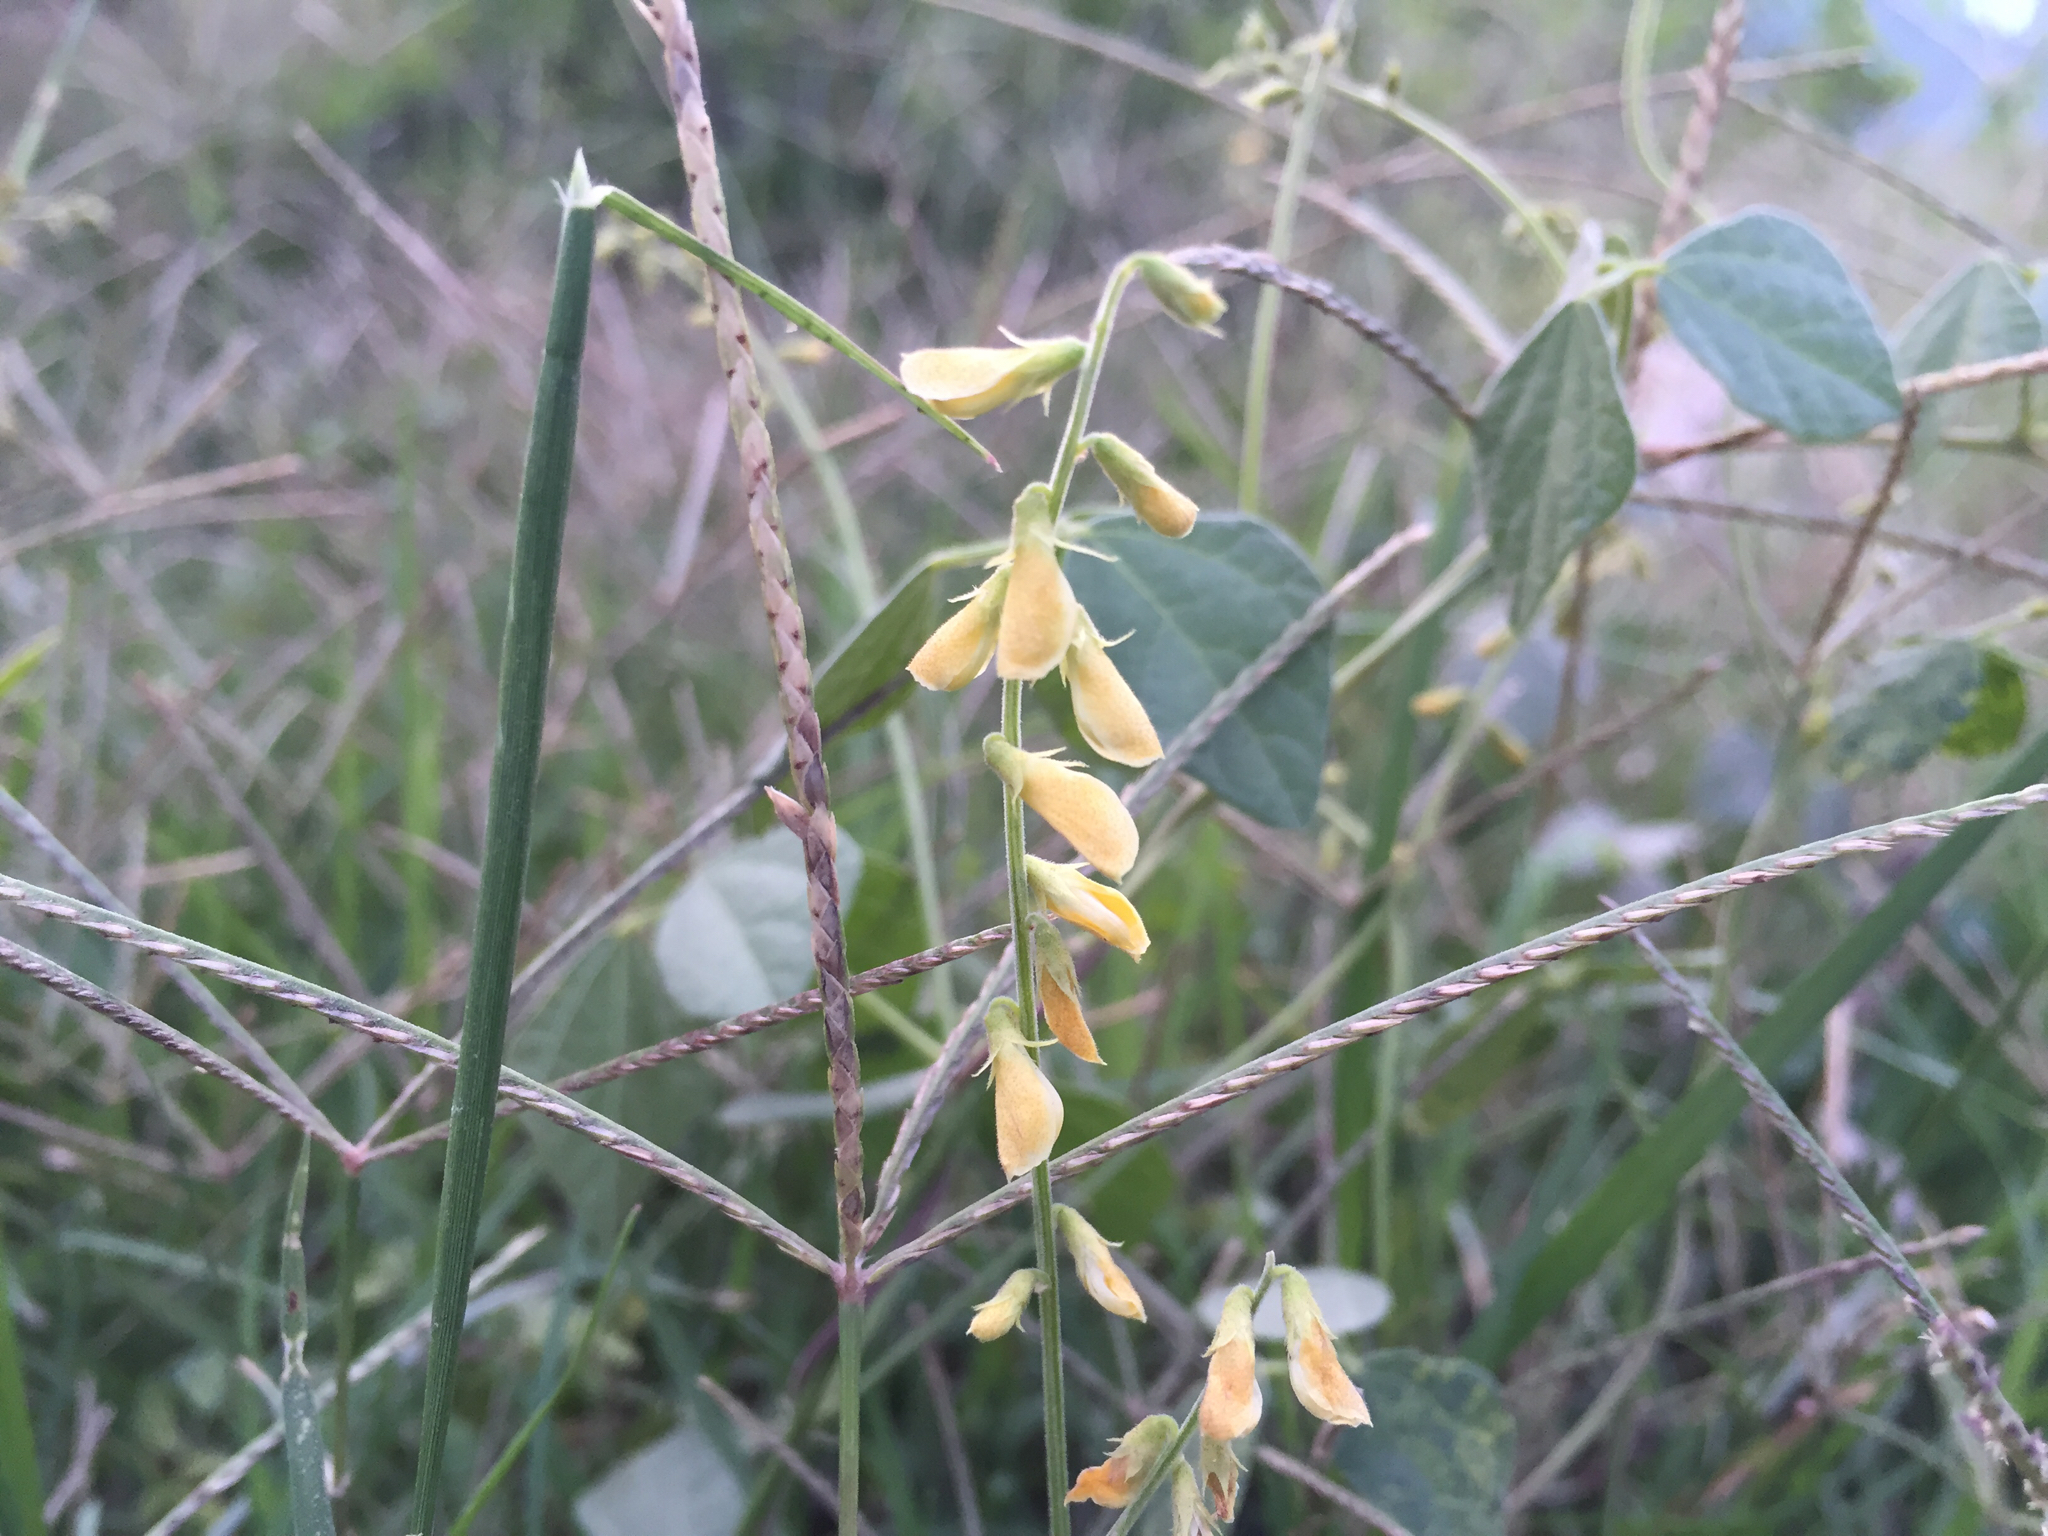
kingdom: Plantae
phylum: Tracheophyta
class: Magnoliopsida
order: Fabales
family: Fabaceae
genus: Rhynchosia
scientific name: Rhynchosia minima
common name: Least snoutbean
